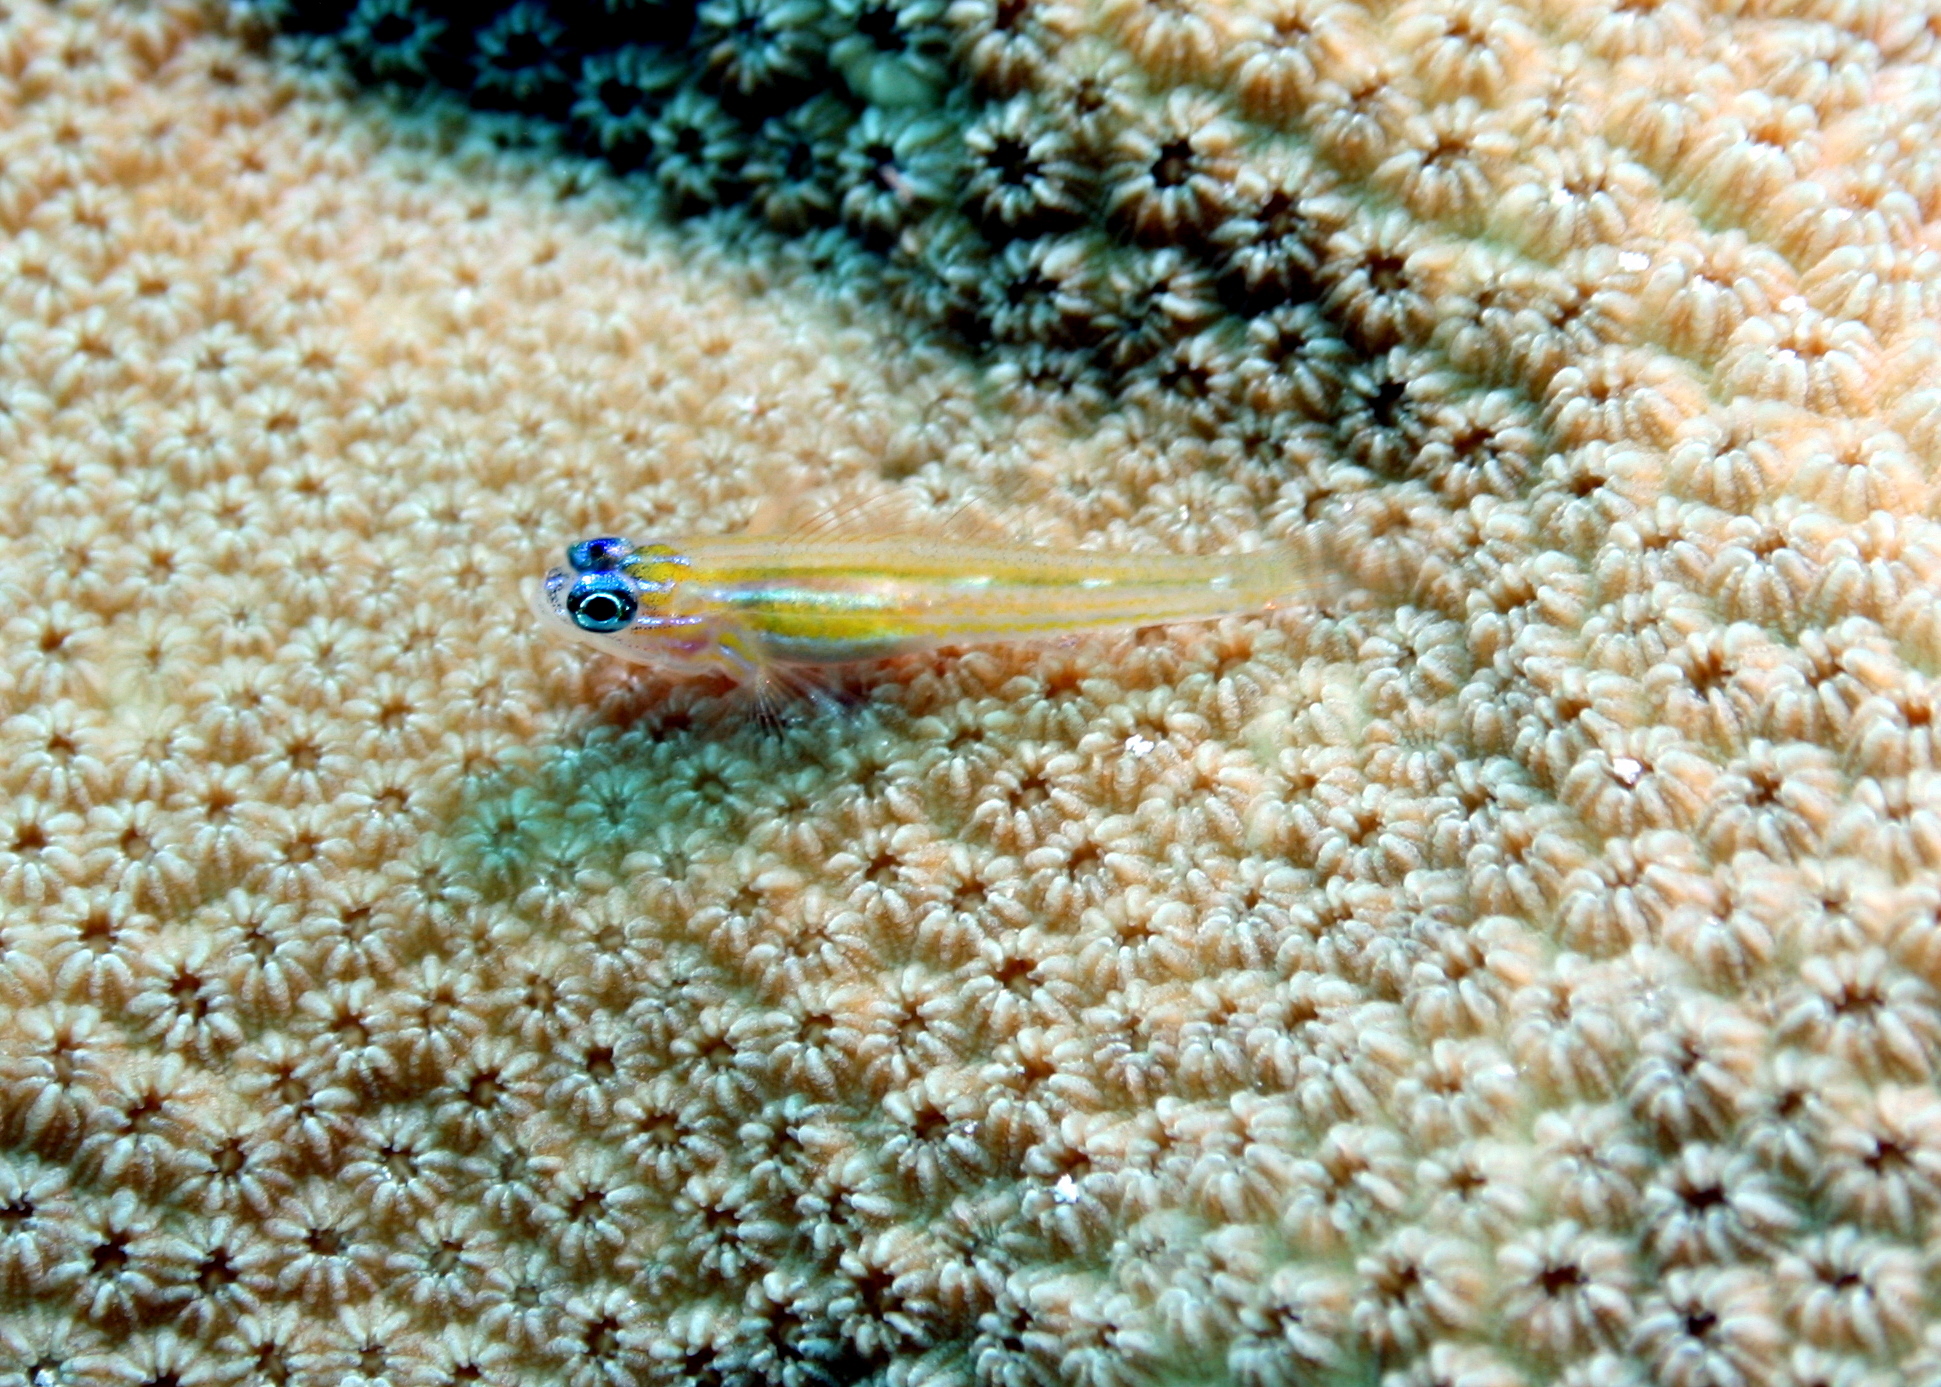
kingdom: Animalia
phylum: Chordata
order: Perciformes
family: Gobiidae
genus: Coryphopterus
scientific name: Coryphopterus lipernes
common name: Peppermint goby
